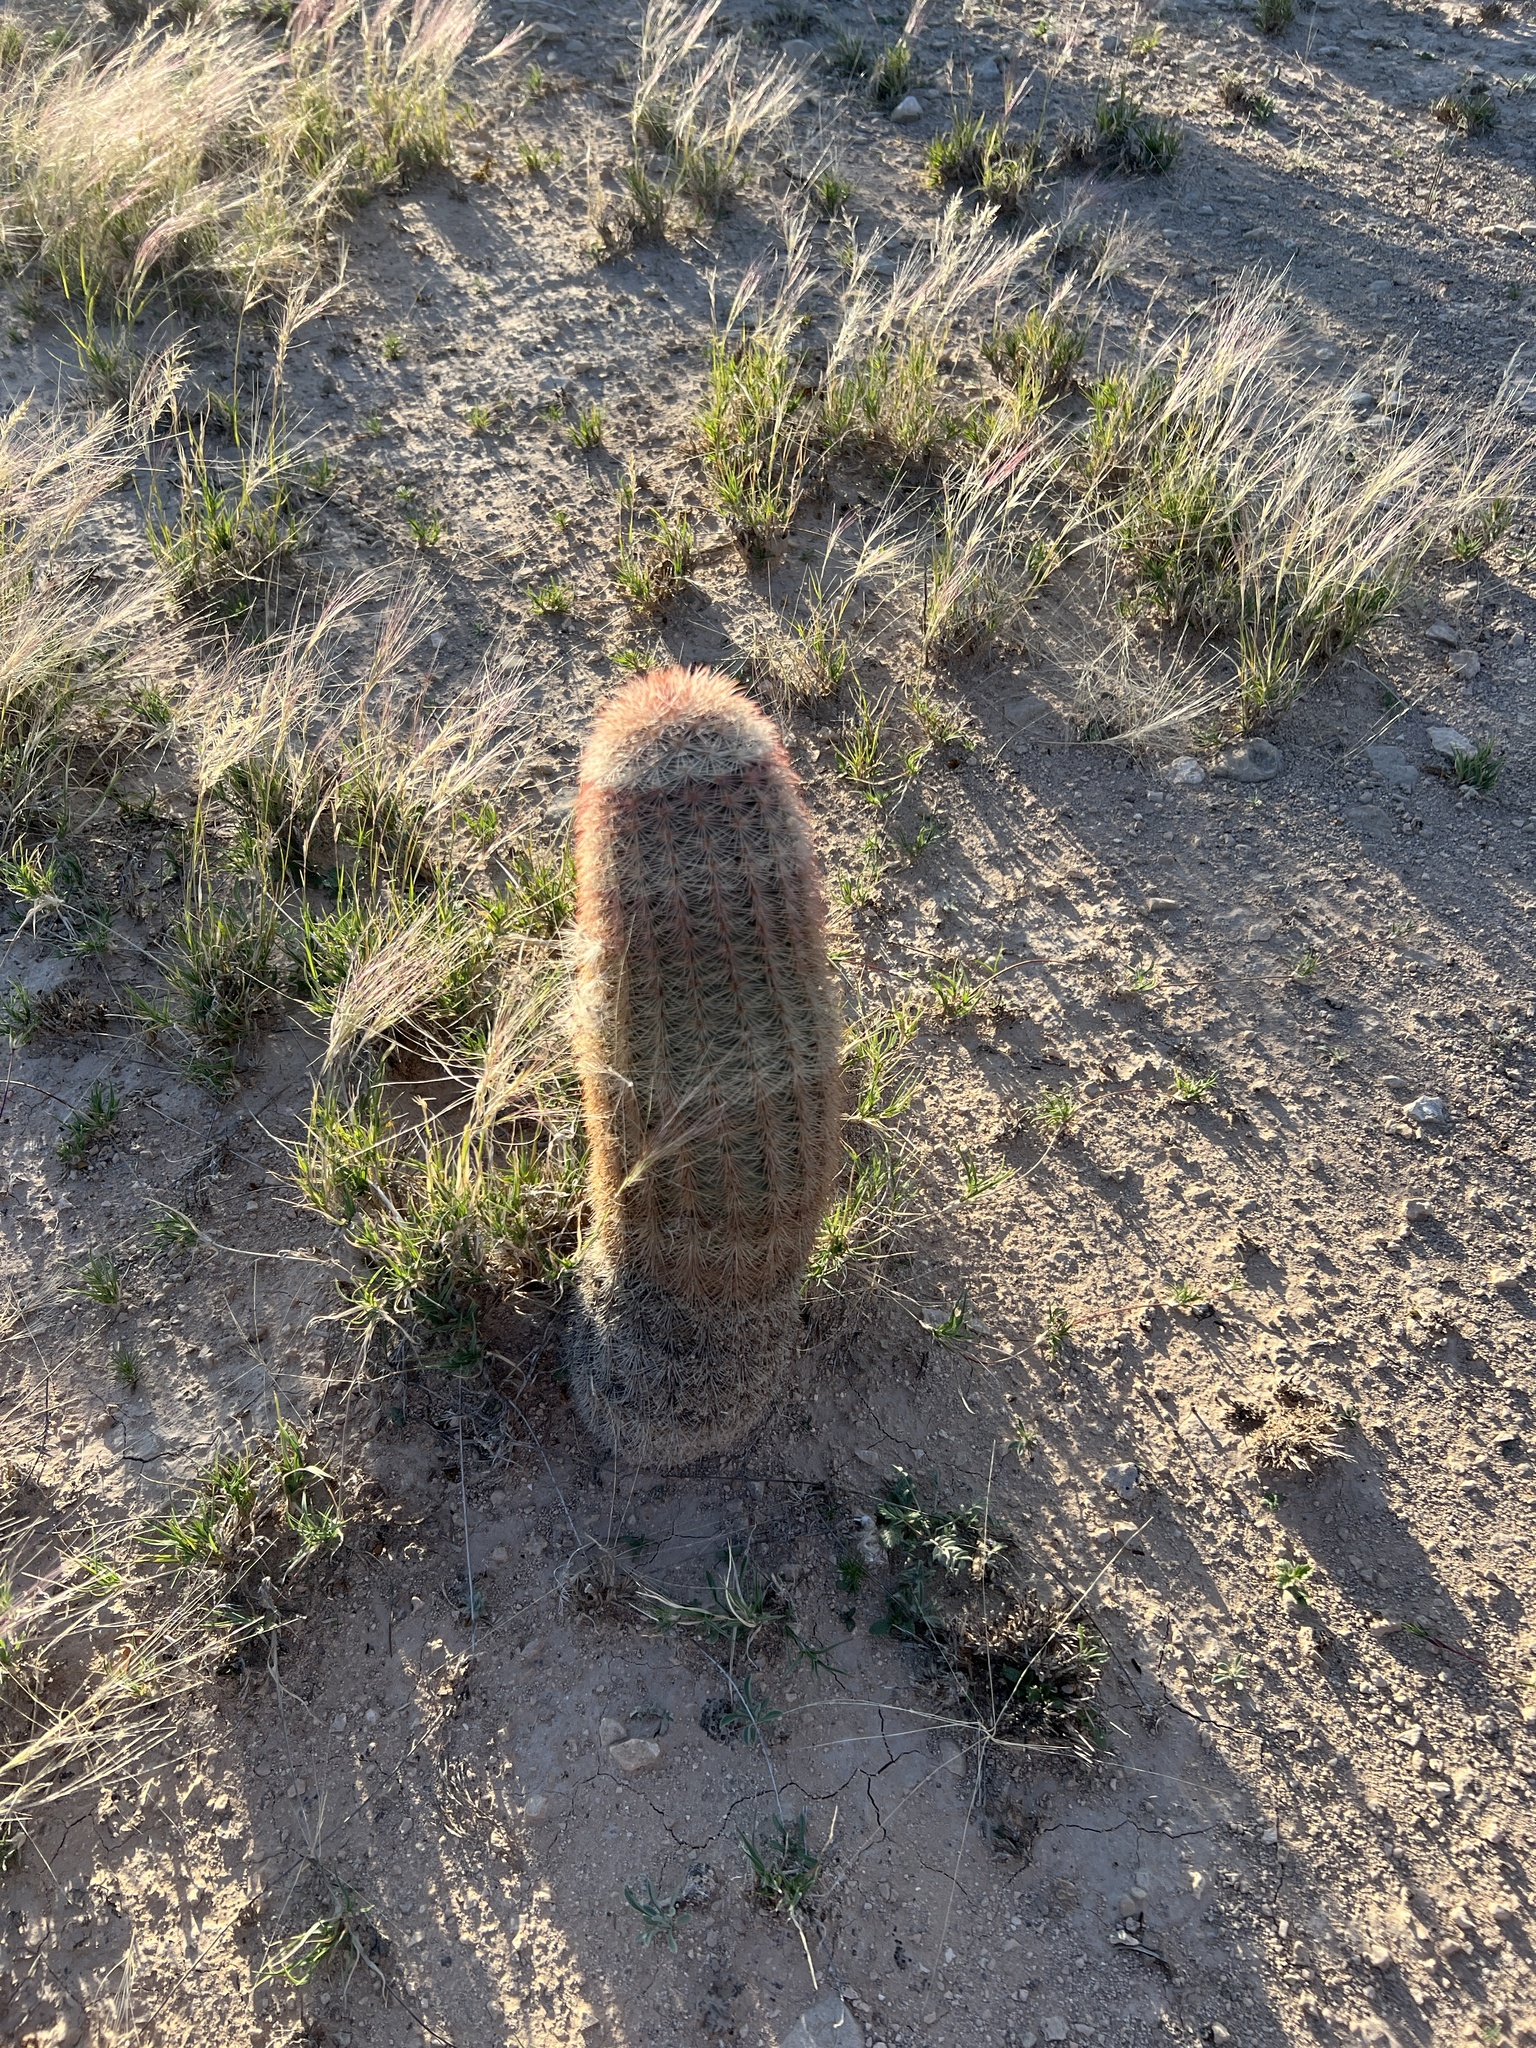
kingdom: Plantae
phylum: Tracheophyta
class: Magnoliopsida
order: Caryophyllales
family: Cactaceae
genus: Echinocereus
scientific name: Echinocereus dasyacanthus
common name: Spiny hedgehog cactus
